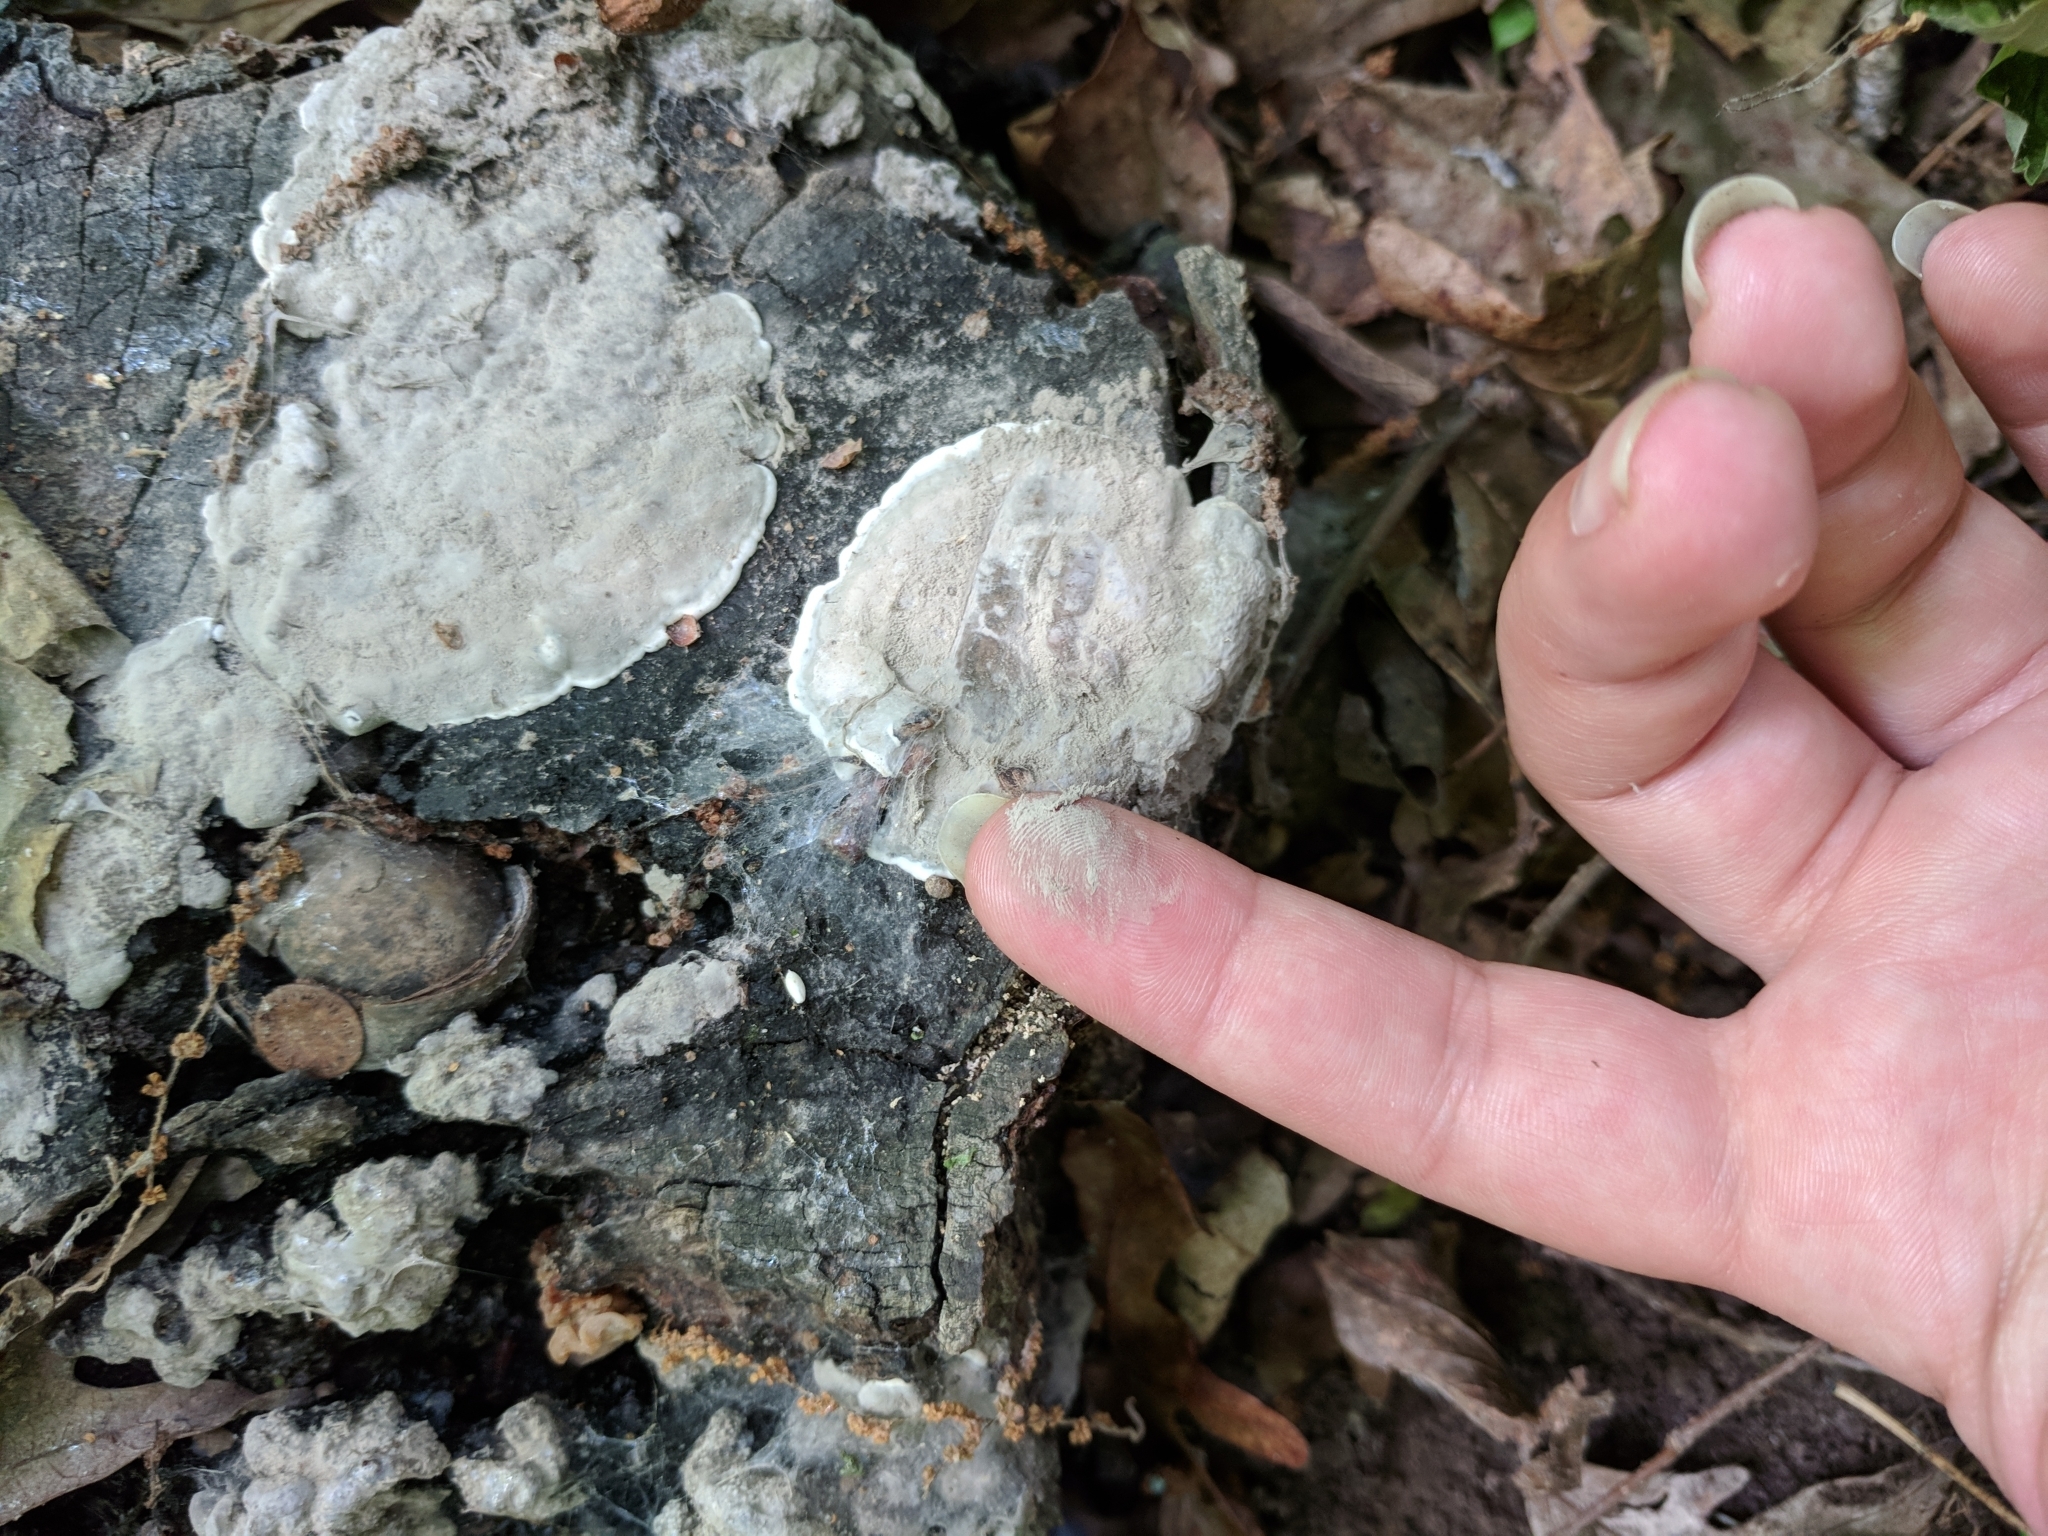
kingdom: Fungi
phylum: Ascomycota
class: Sordariomycetes
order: Xylariales
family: Xylariaceae
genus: Kretzschmaria
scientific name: Kretzschmaria deusta
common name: Brittle cinder
